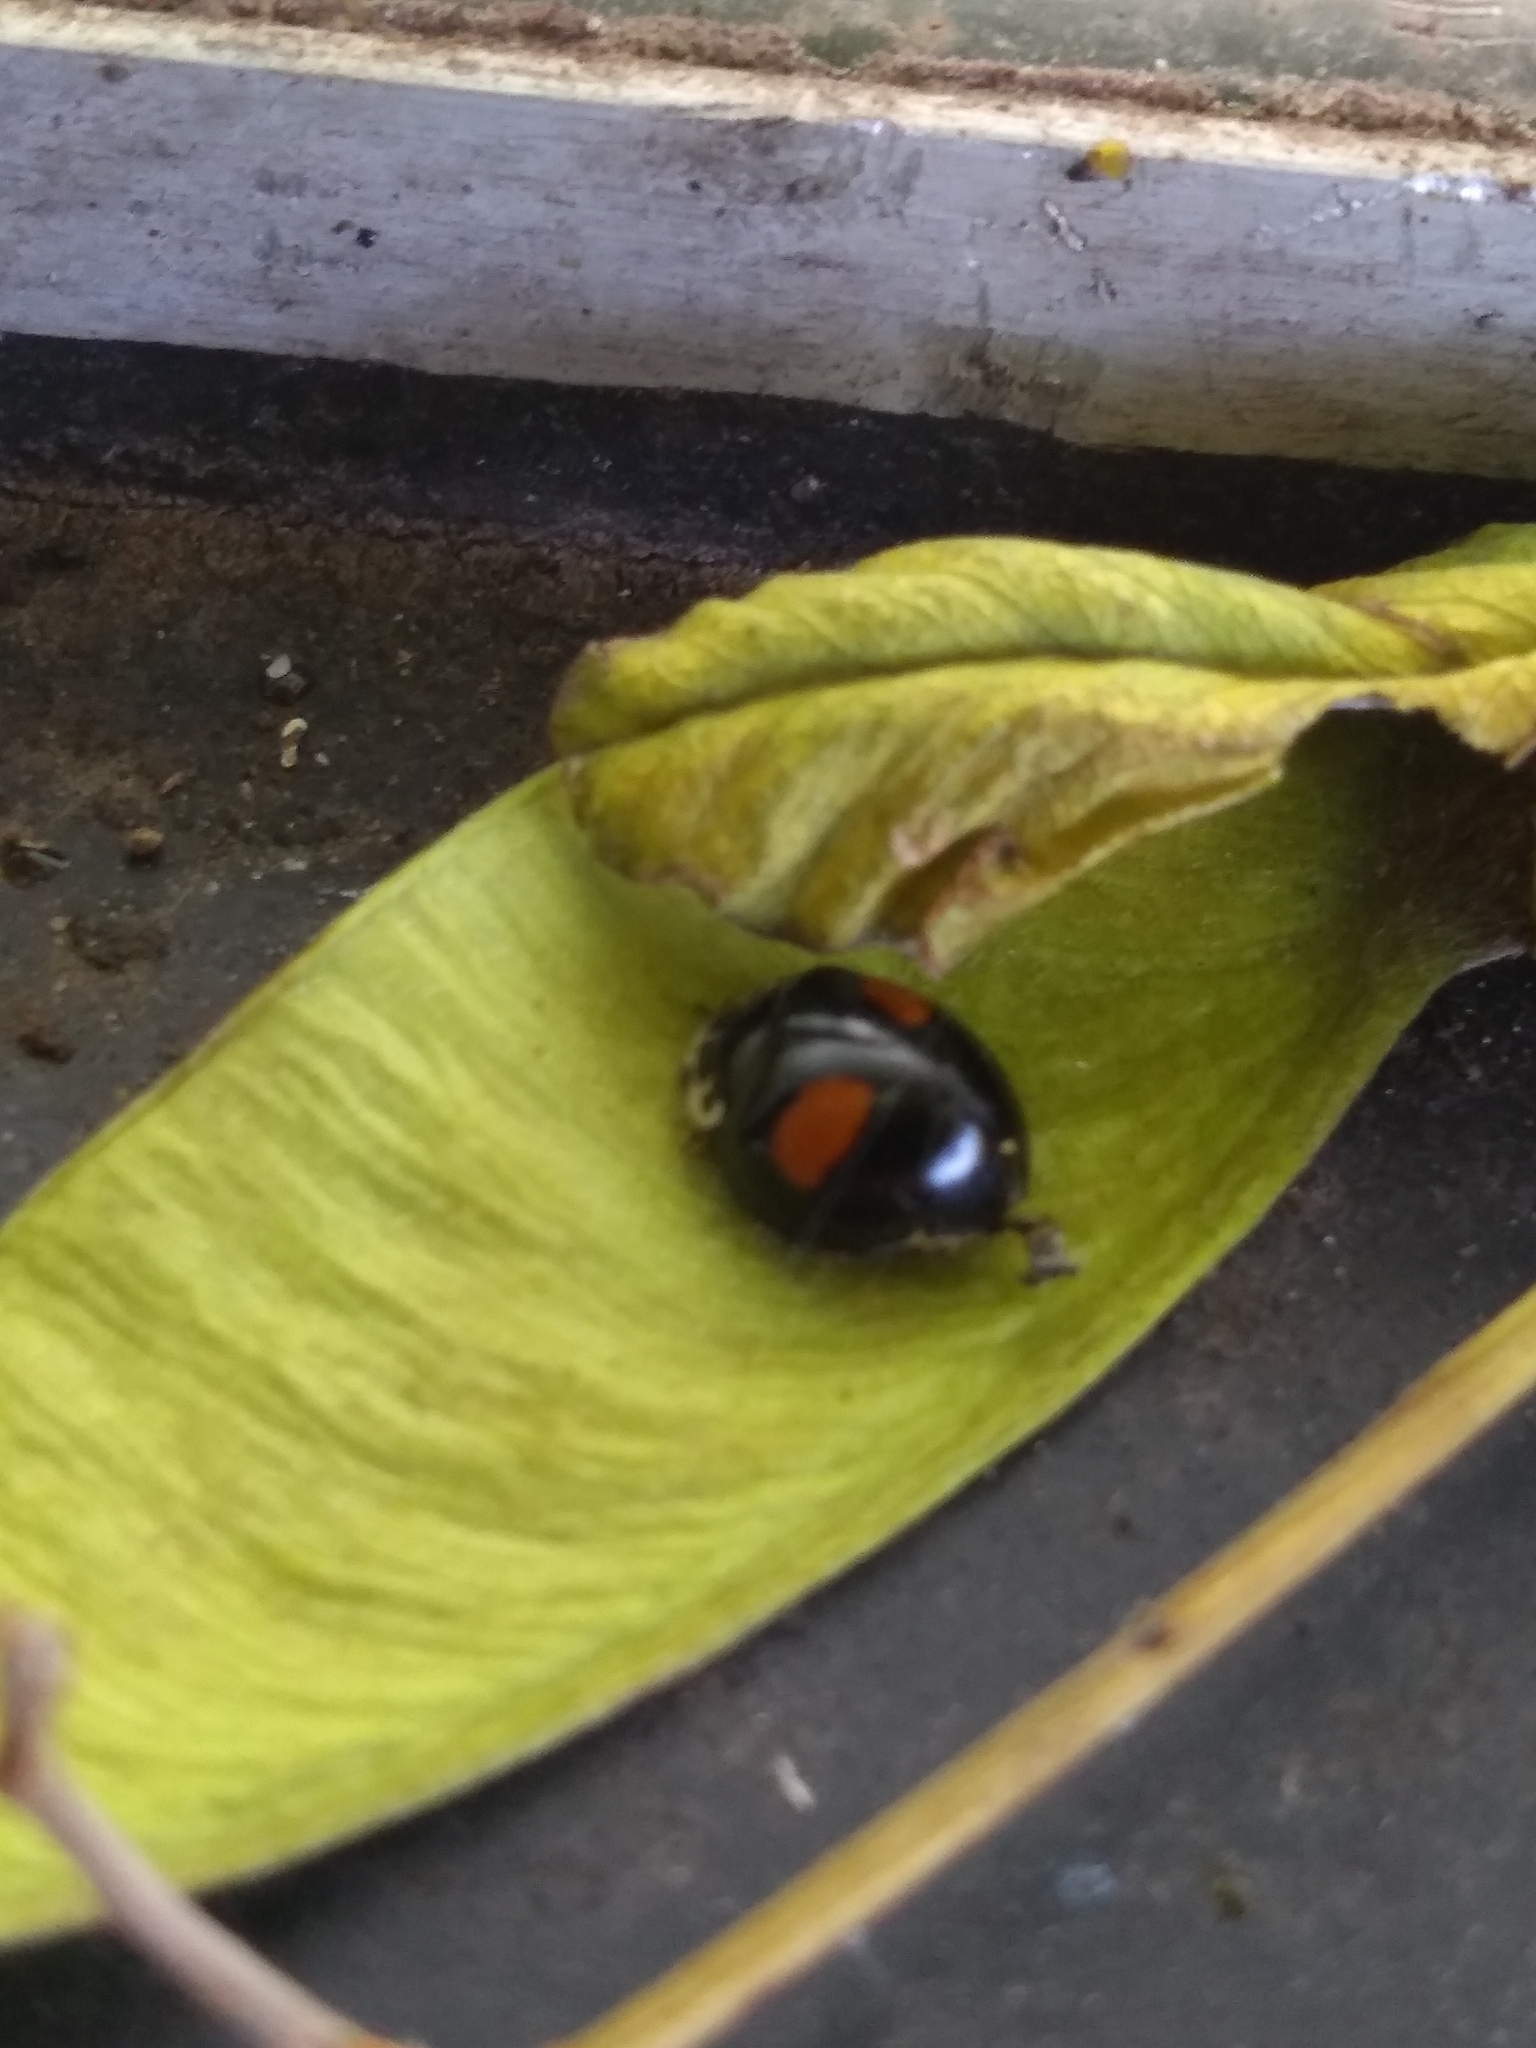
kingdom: Animalia
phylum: Arthropoda
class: Insecta
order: Coleoptera
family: Coccinellidae
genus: Olla
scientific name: Olla v-nigrum
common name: Ashy gray lady beetle
